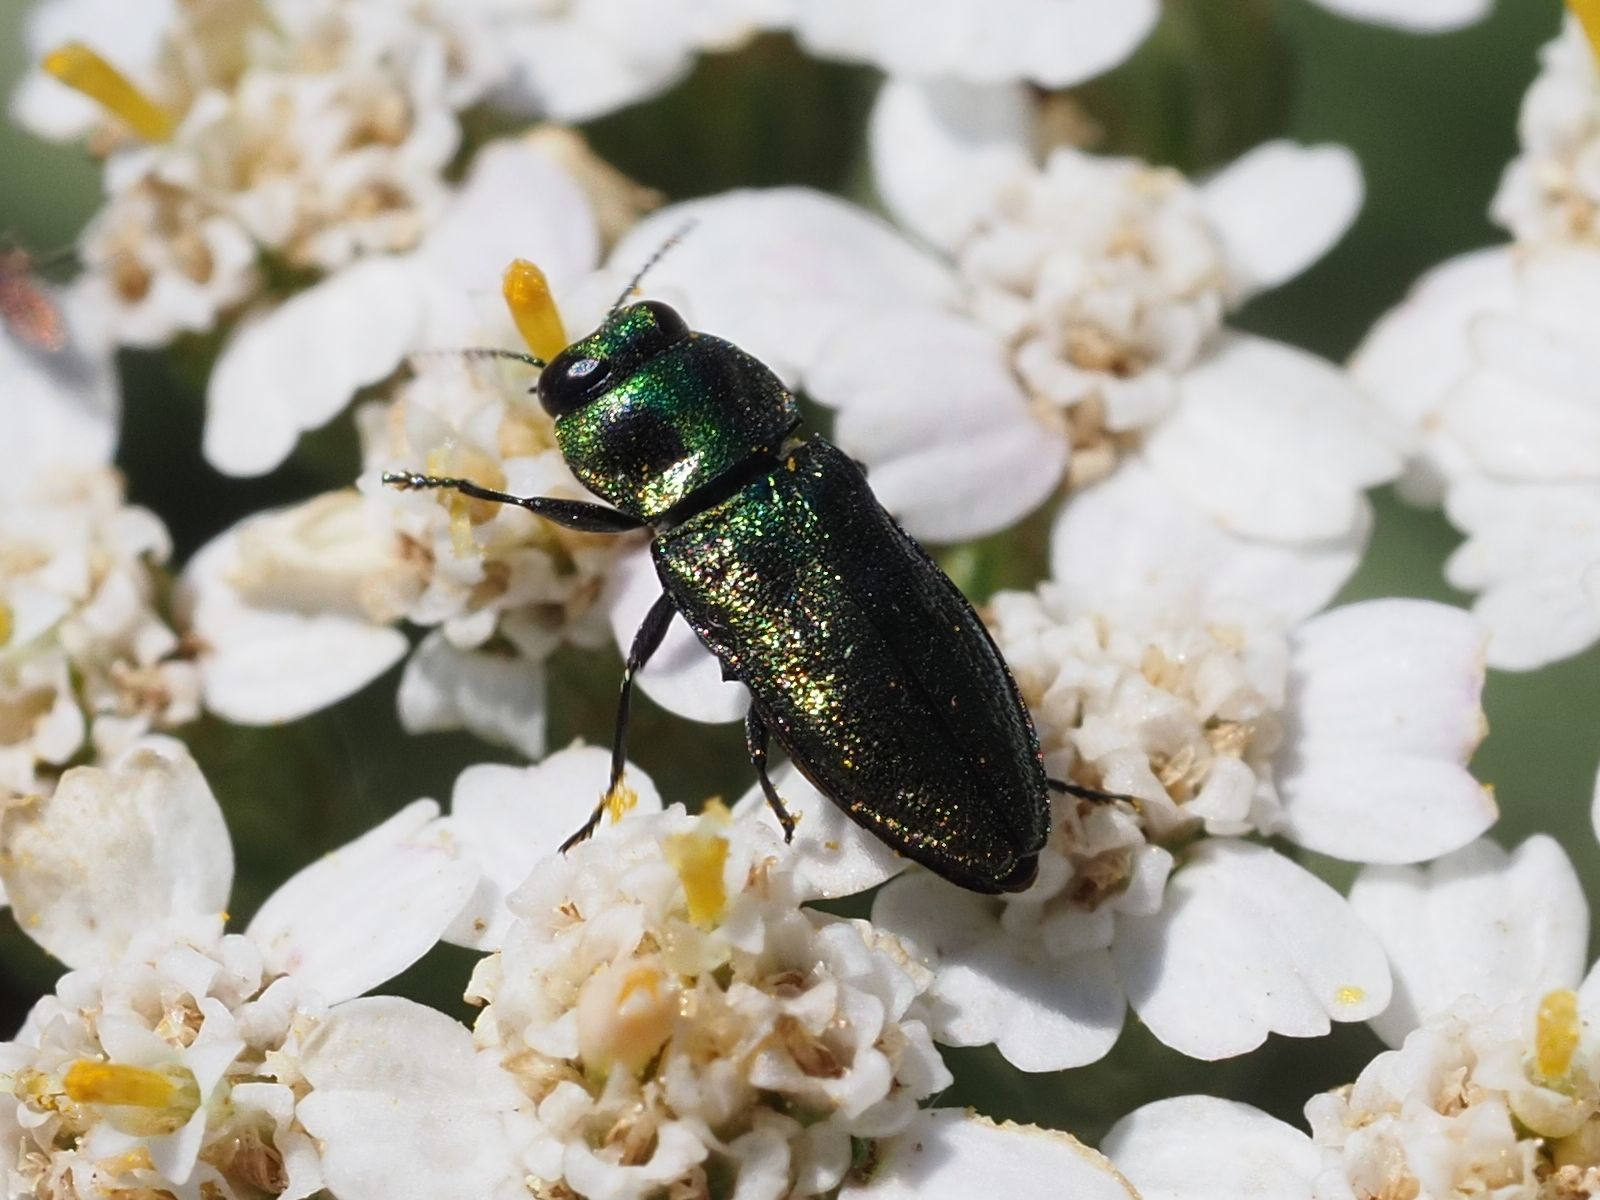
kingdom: Animalia
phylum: Arthropoda
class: Insecta
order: Coleoptera
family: Buprestidae
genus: Anthaxia
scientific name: Anthaxia podolica
